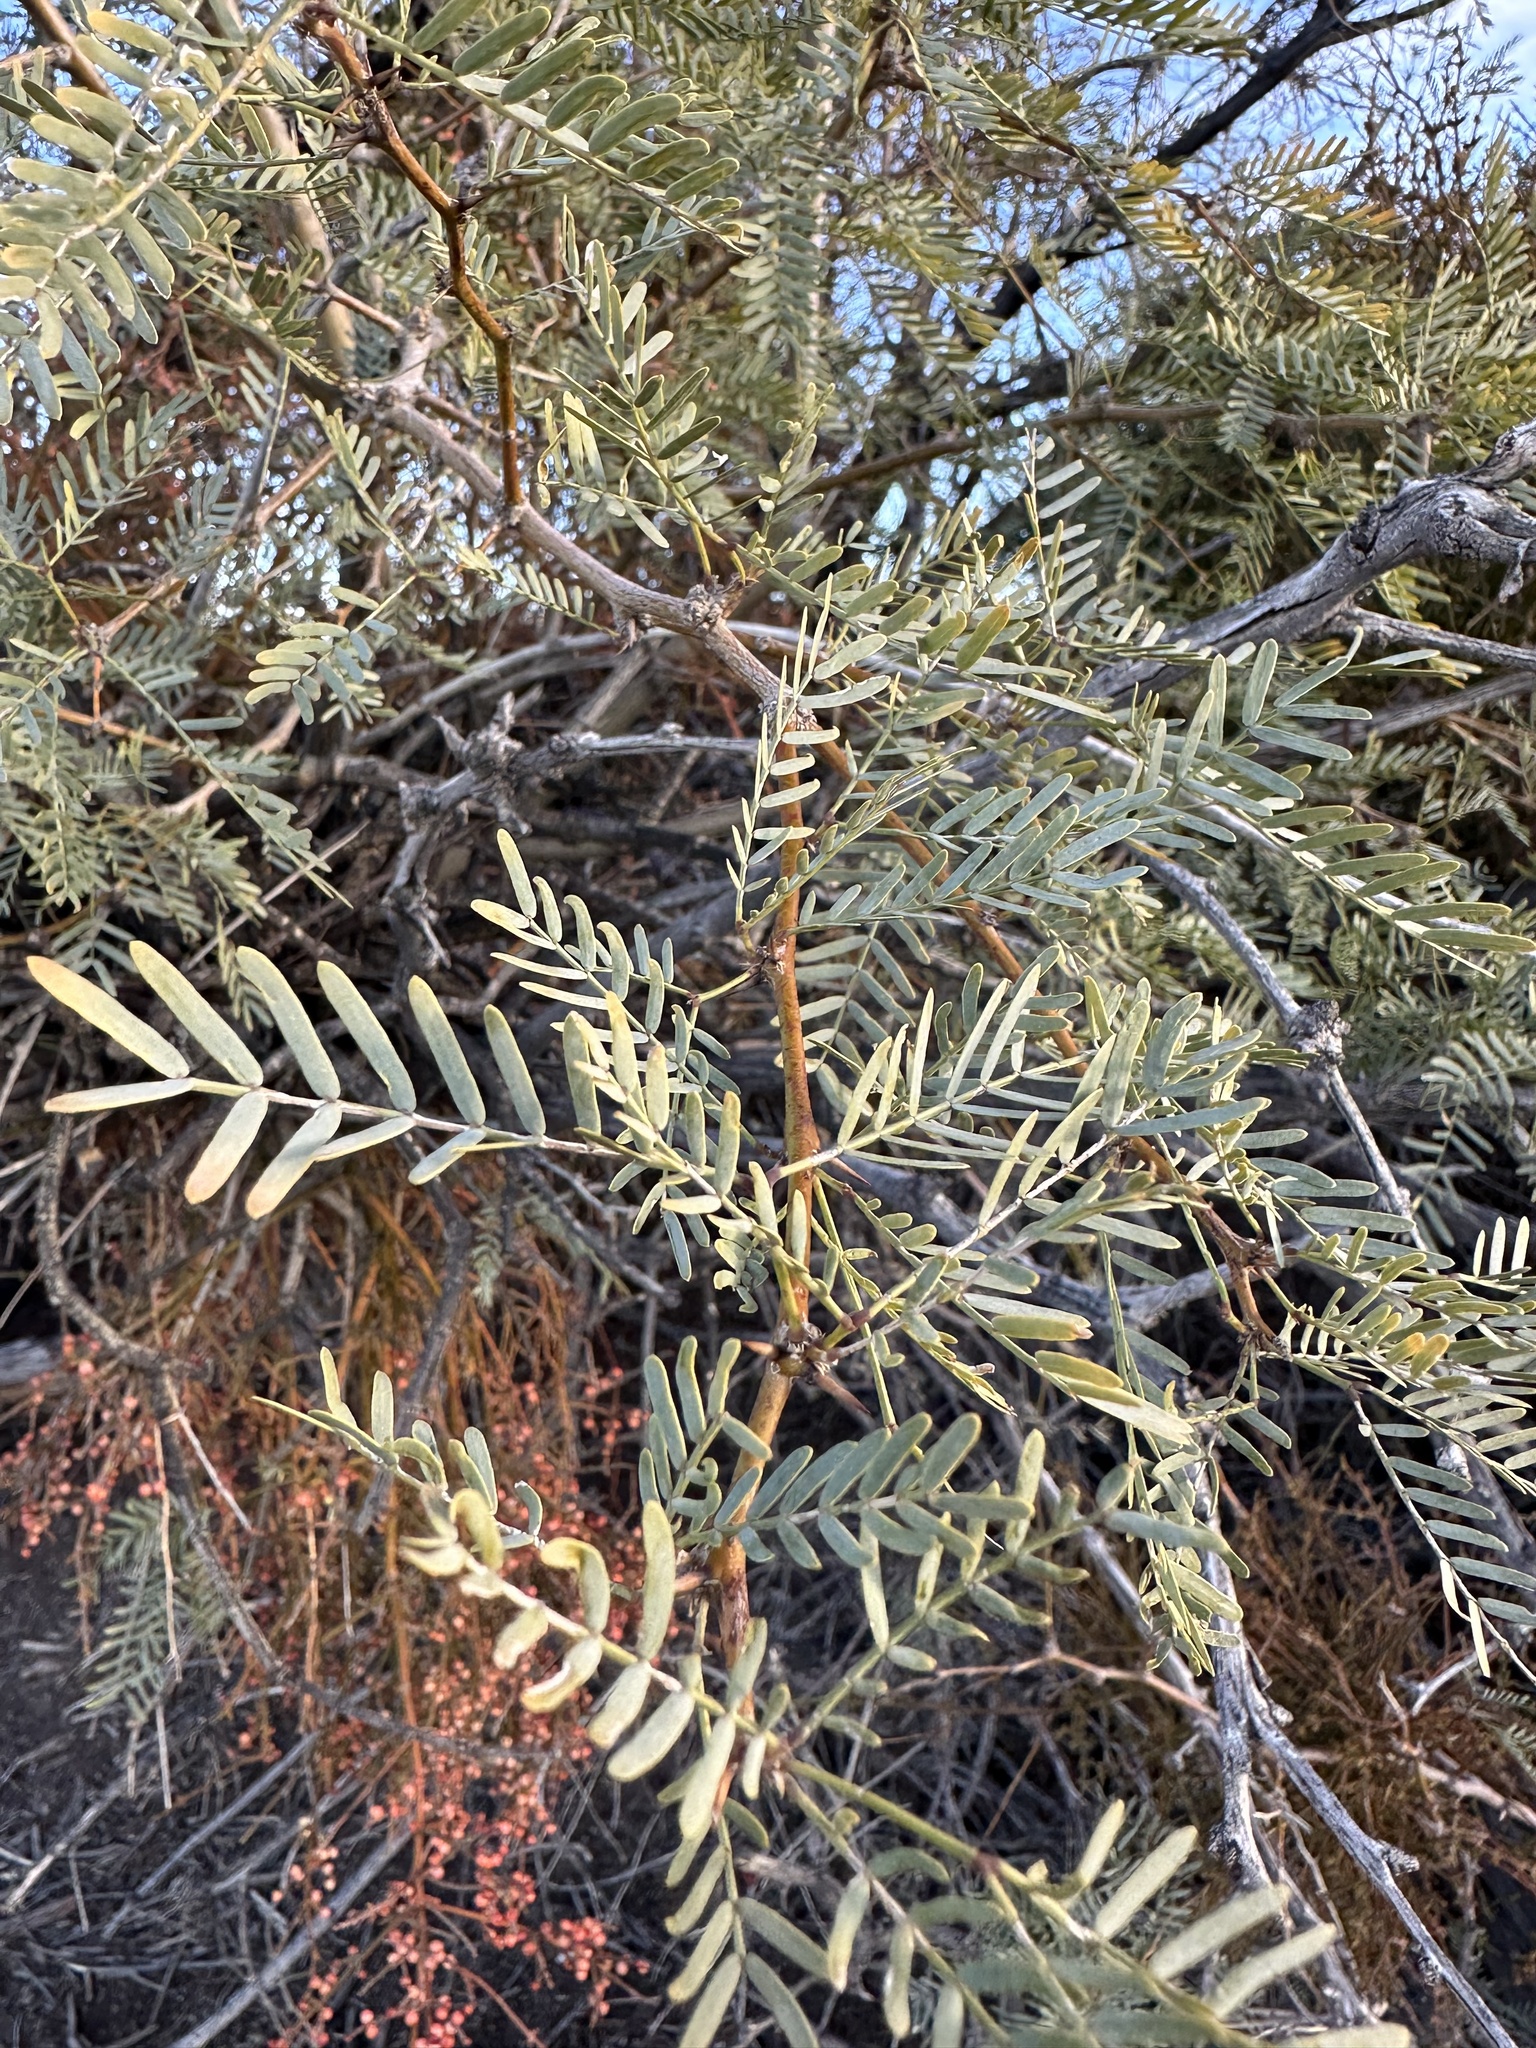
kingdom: Plantae
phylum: Tracheophyta
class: Magnoliopsida
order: Fabales
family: Fabaceae
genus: Prosopis
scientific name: Prosopis pubescens
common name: Screw-bean
